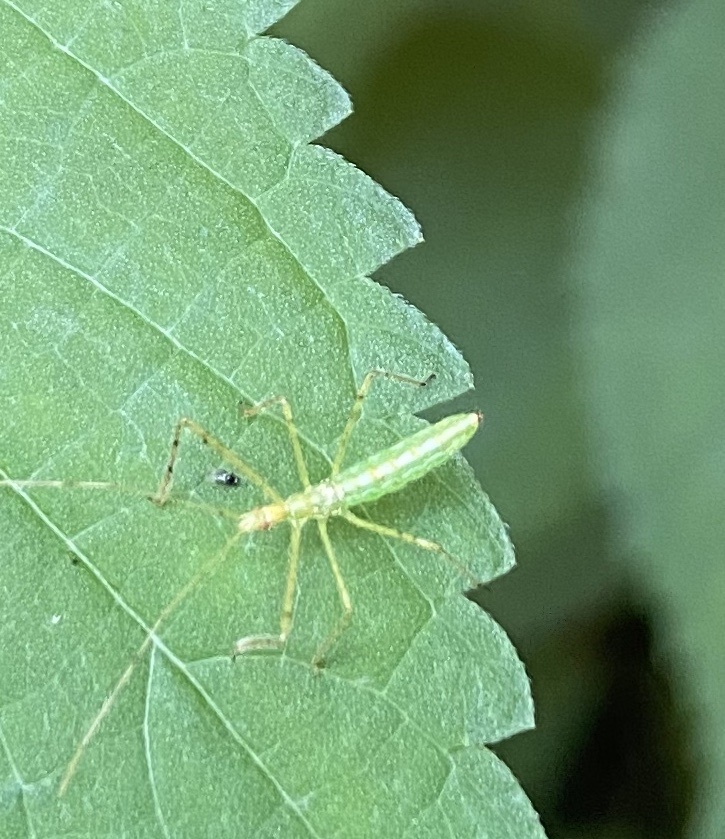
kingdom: Animalia
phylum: Arthropoda
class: Insecta
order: Hemiptera
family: Reduviidae
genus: Zelus
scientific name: Zelus luridus
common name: Pale green assassin bug
